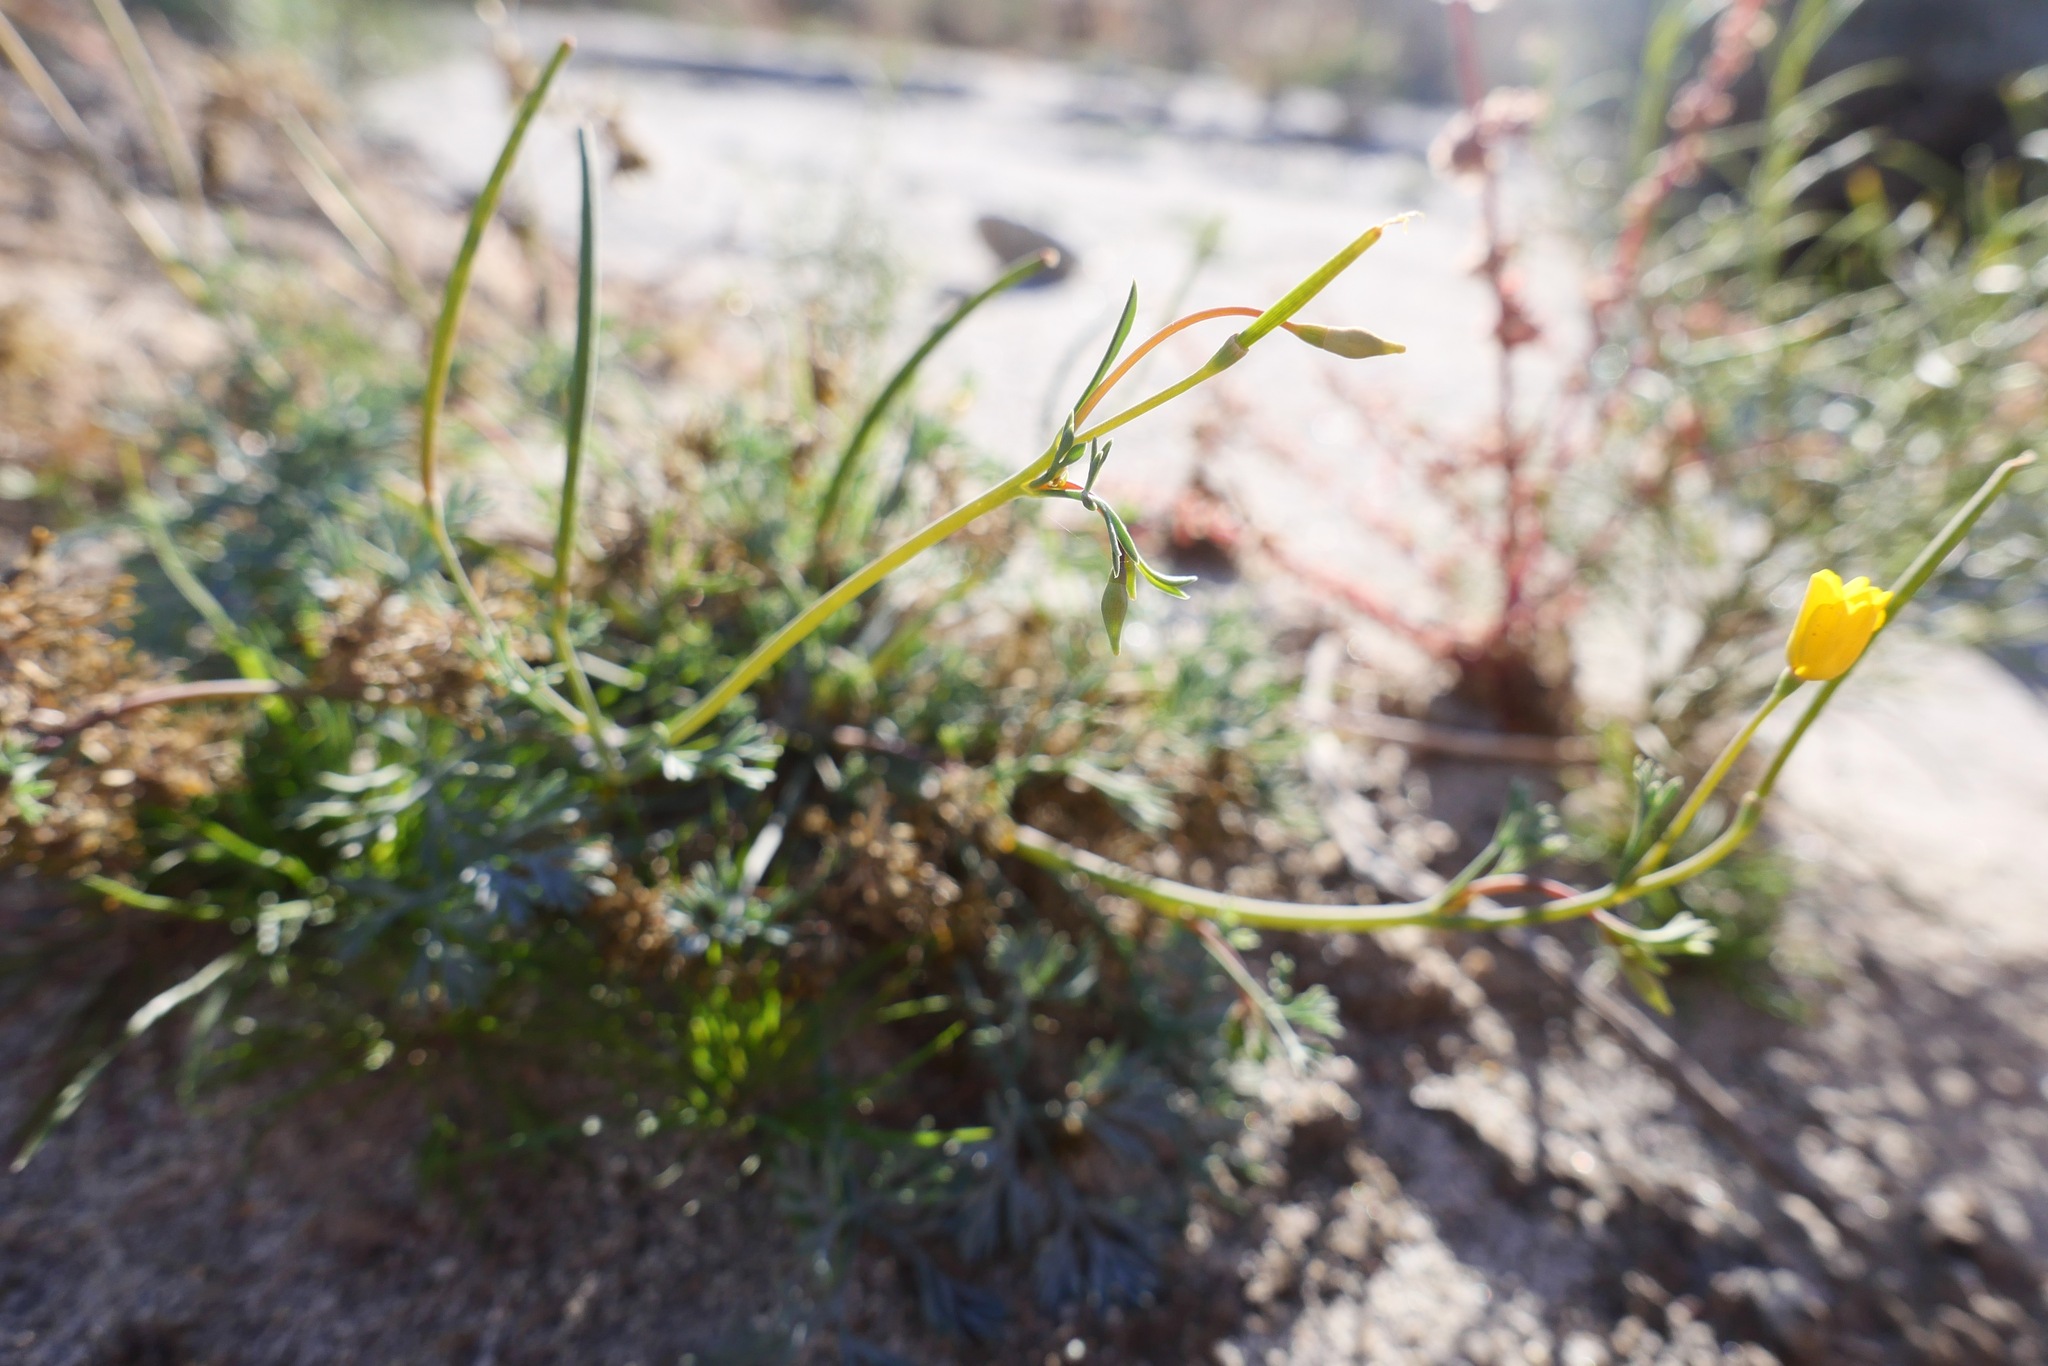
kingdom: Plantae
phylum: Tracheophyta
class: Magnoliopsida
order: Ranunculales
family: Papaveraceae
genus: Eschscholzia
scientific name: Eschscholzia minutiflora
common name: Small-flower california-poppy
